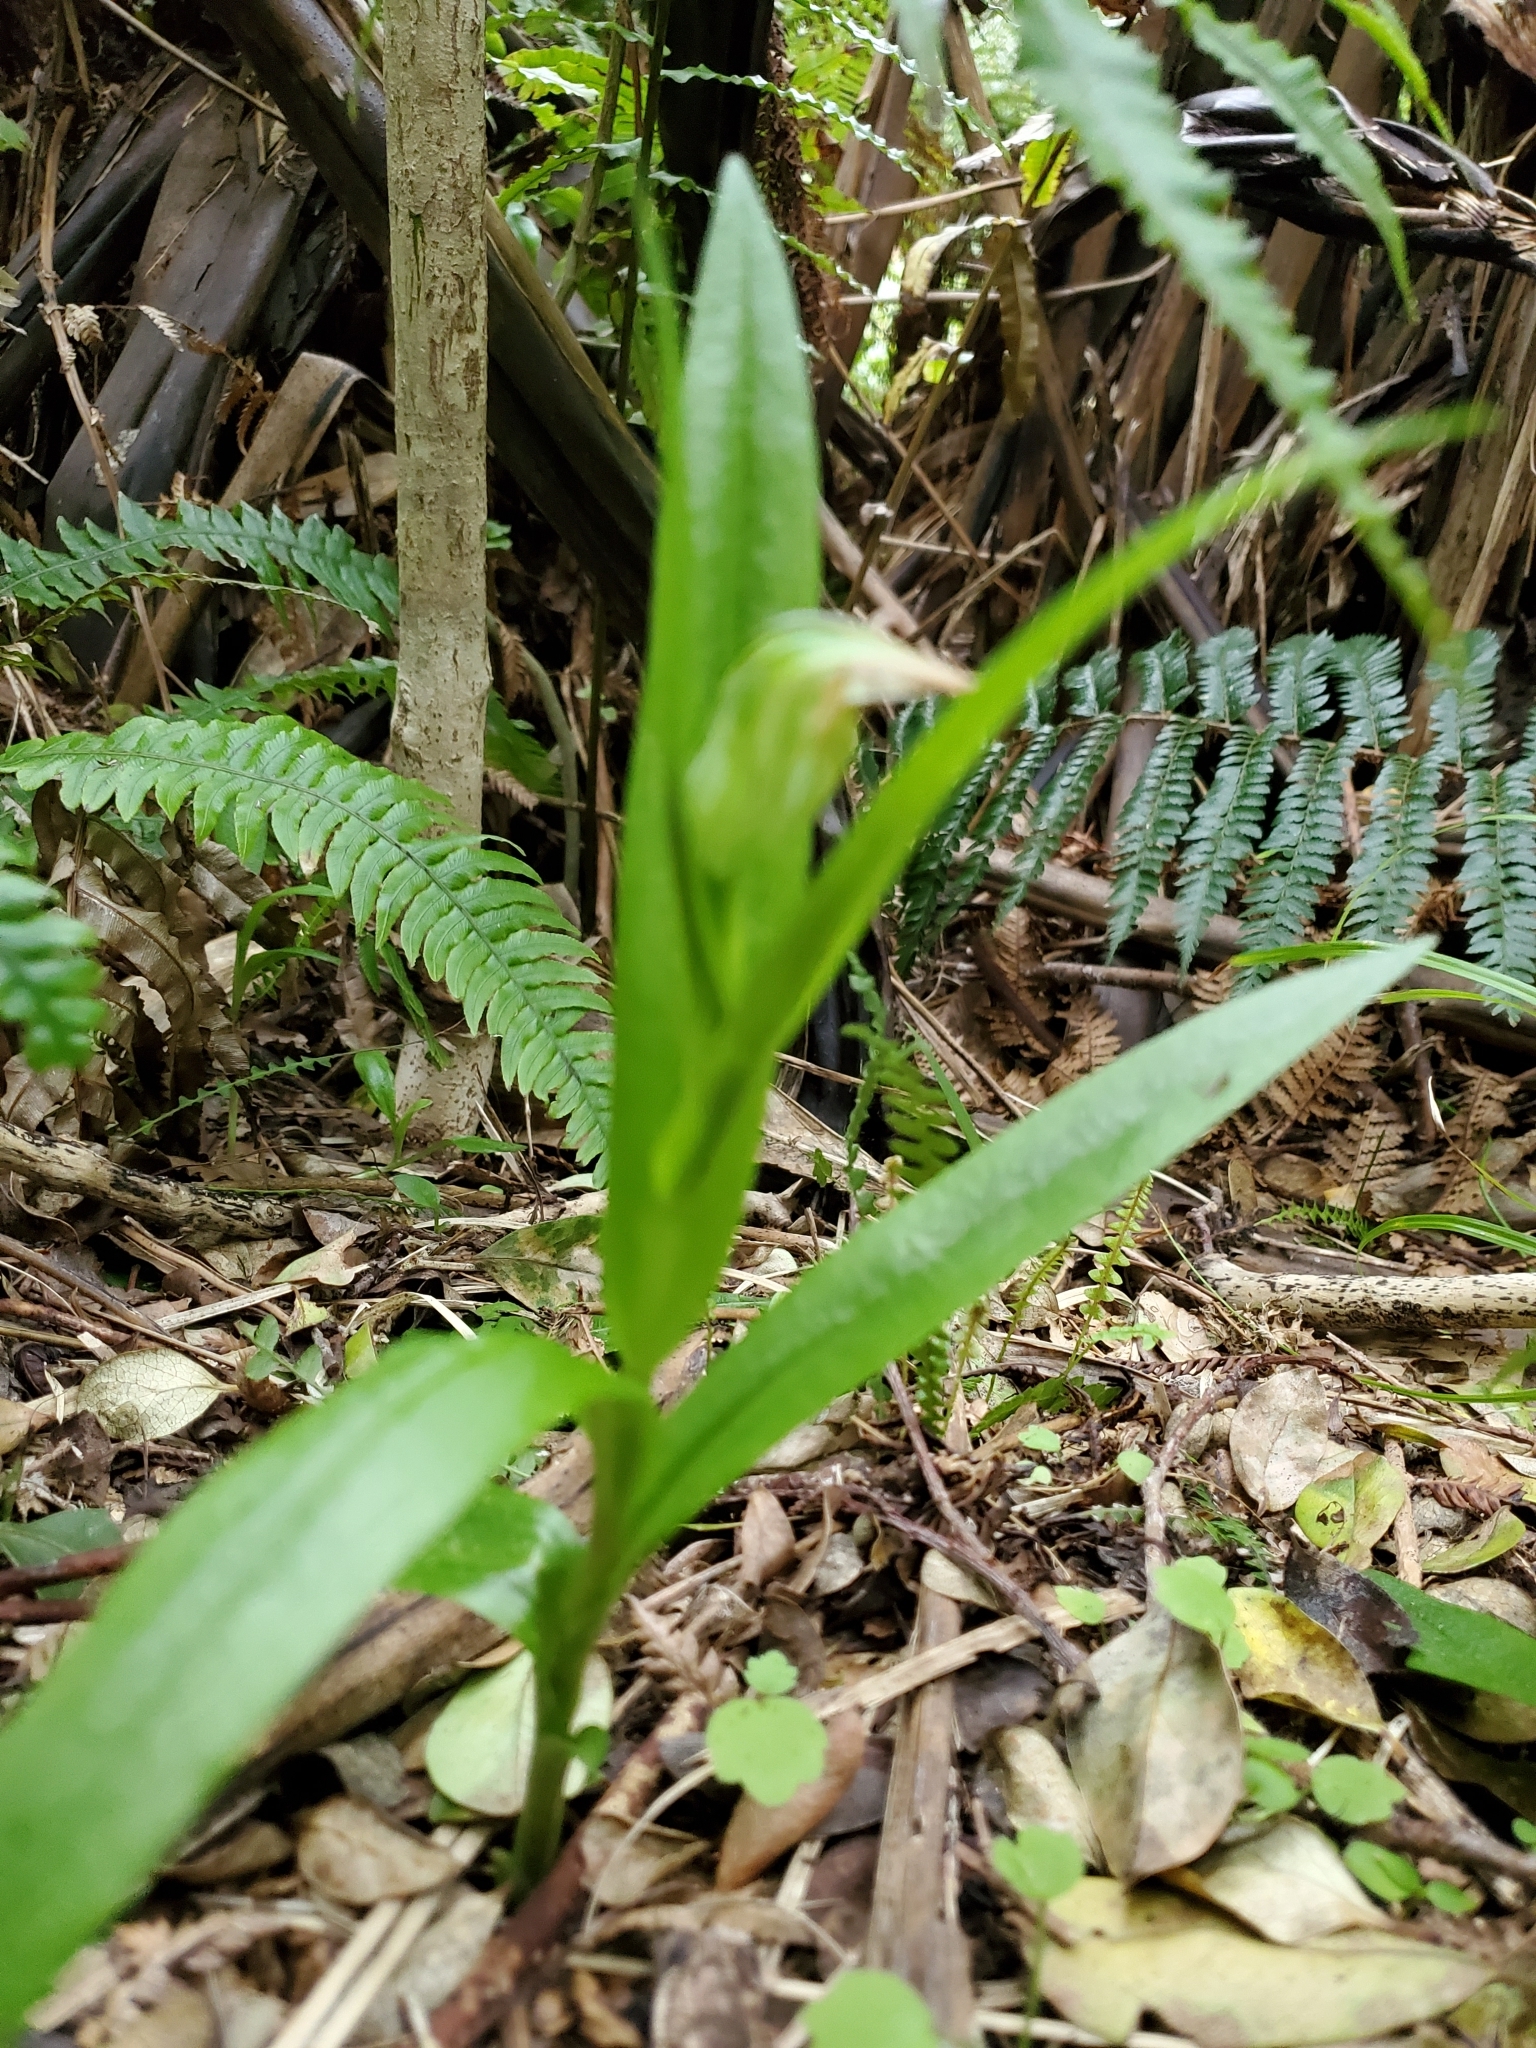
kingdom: Plantae
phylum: Tracheophyta
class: Liliopsida
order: Asparagales
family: Orchidaceae
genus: Pterostylis
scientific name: Pterostylis silvicultrix
